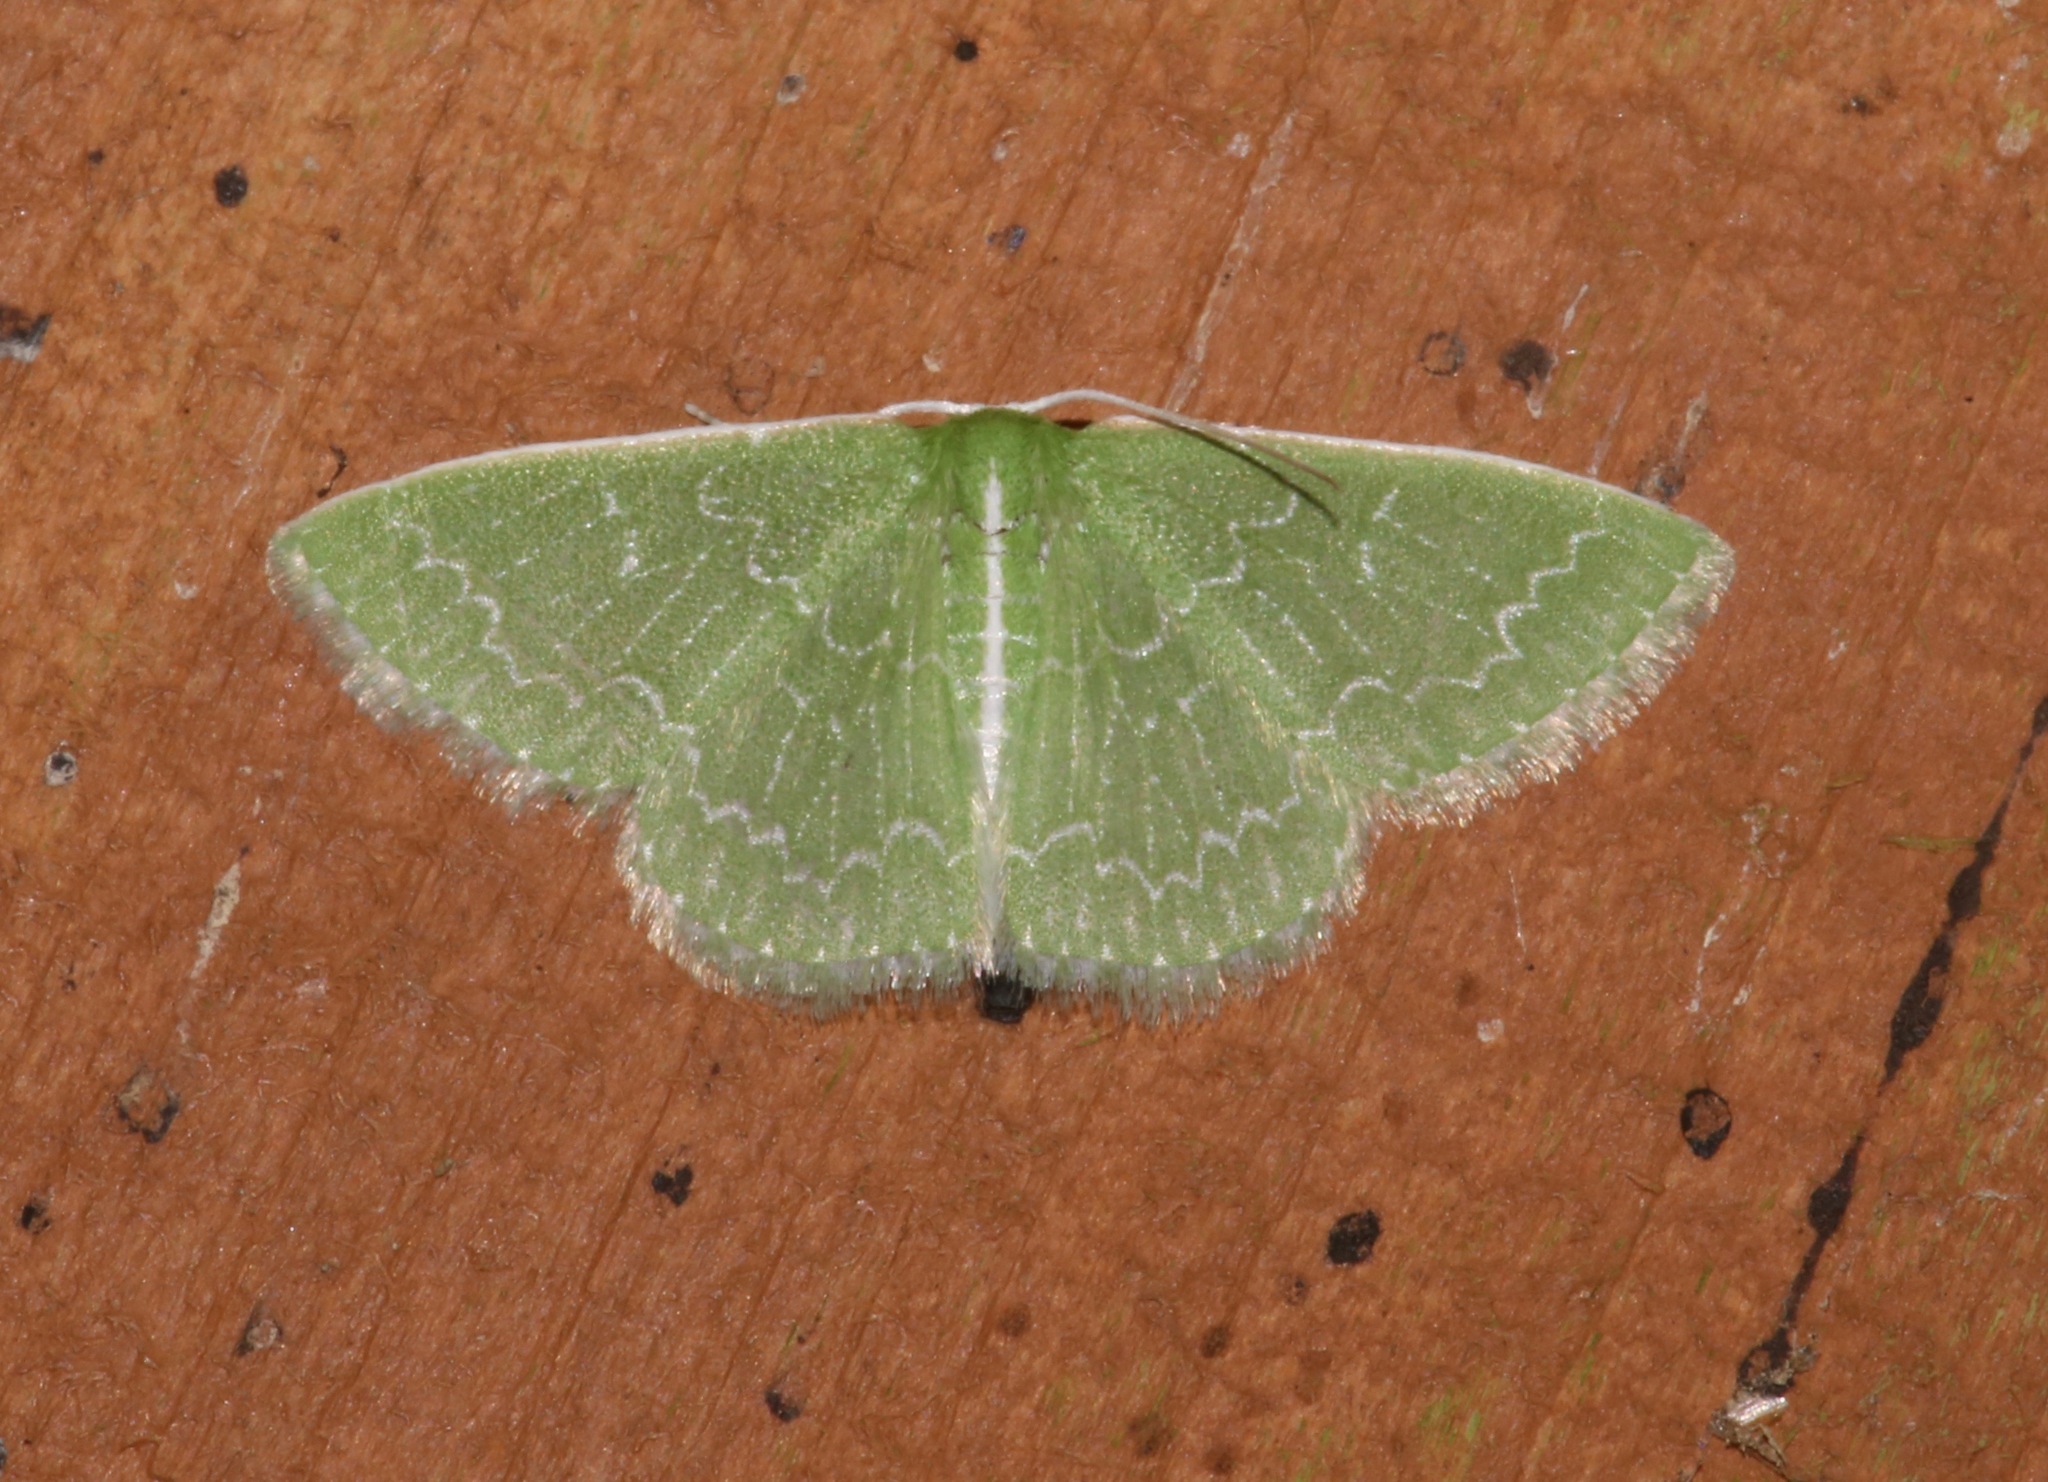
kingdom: Animalia
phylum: Arthropoda
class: Insecta
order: Lepidoptera
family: Geometridae
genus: Synchlora
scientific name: Synchlora frondaria
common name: Southern emerald
